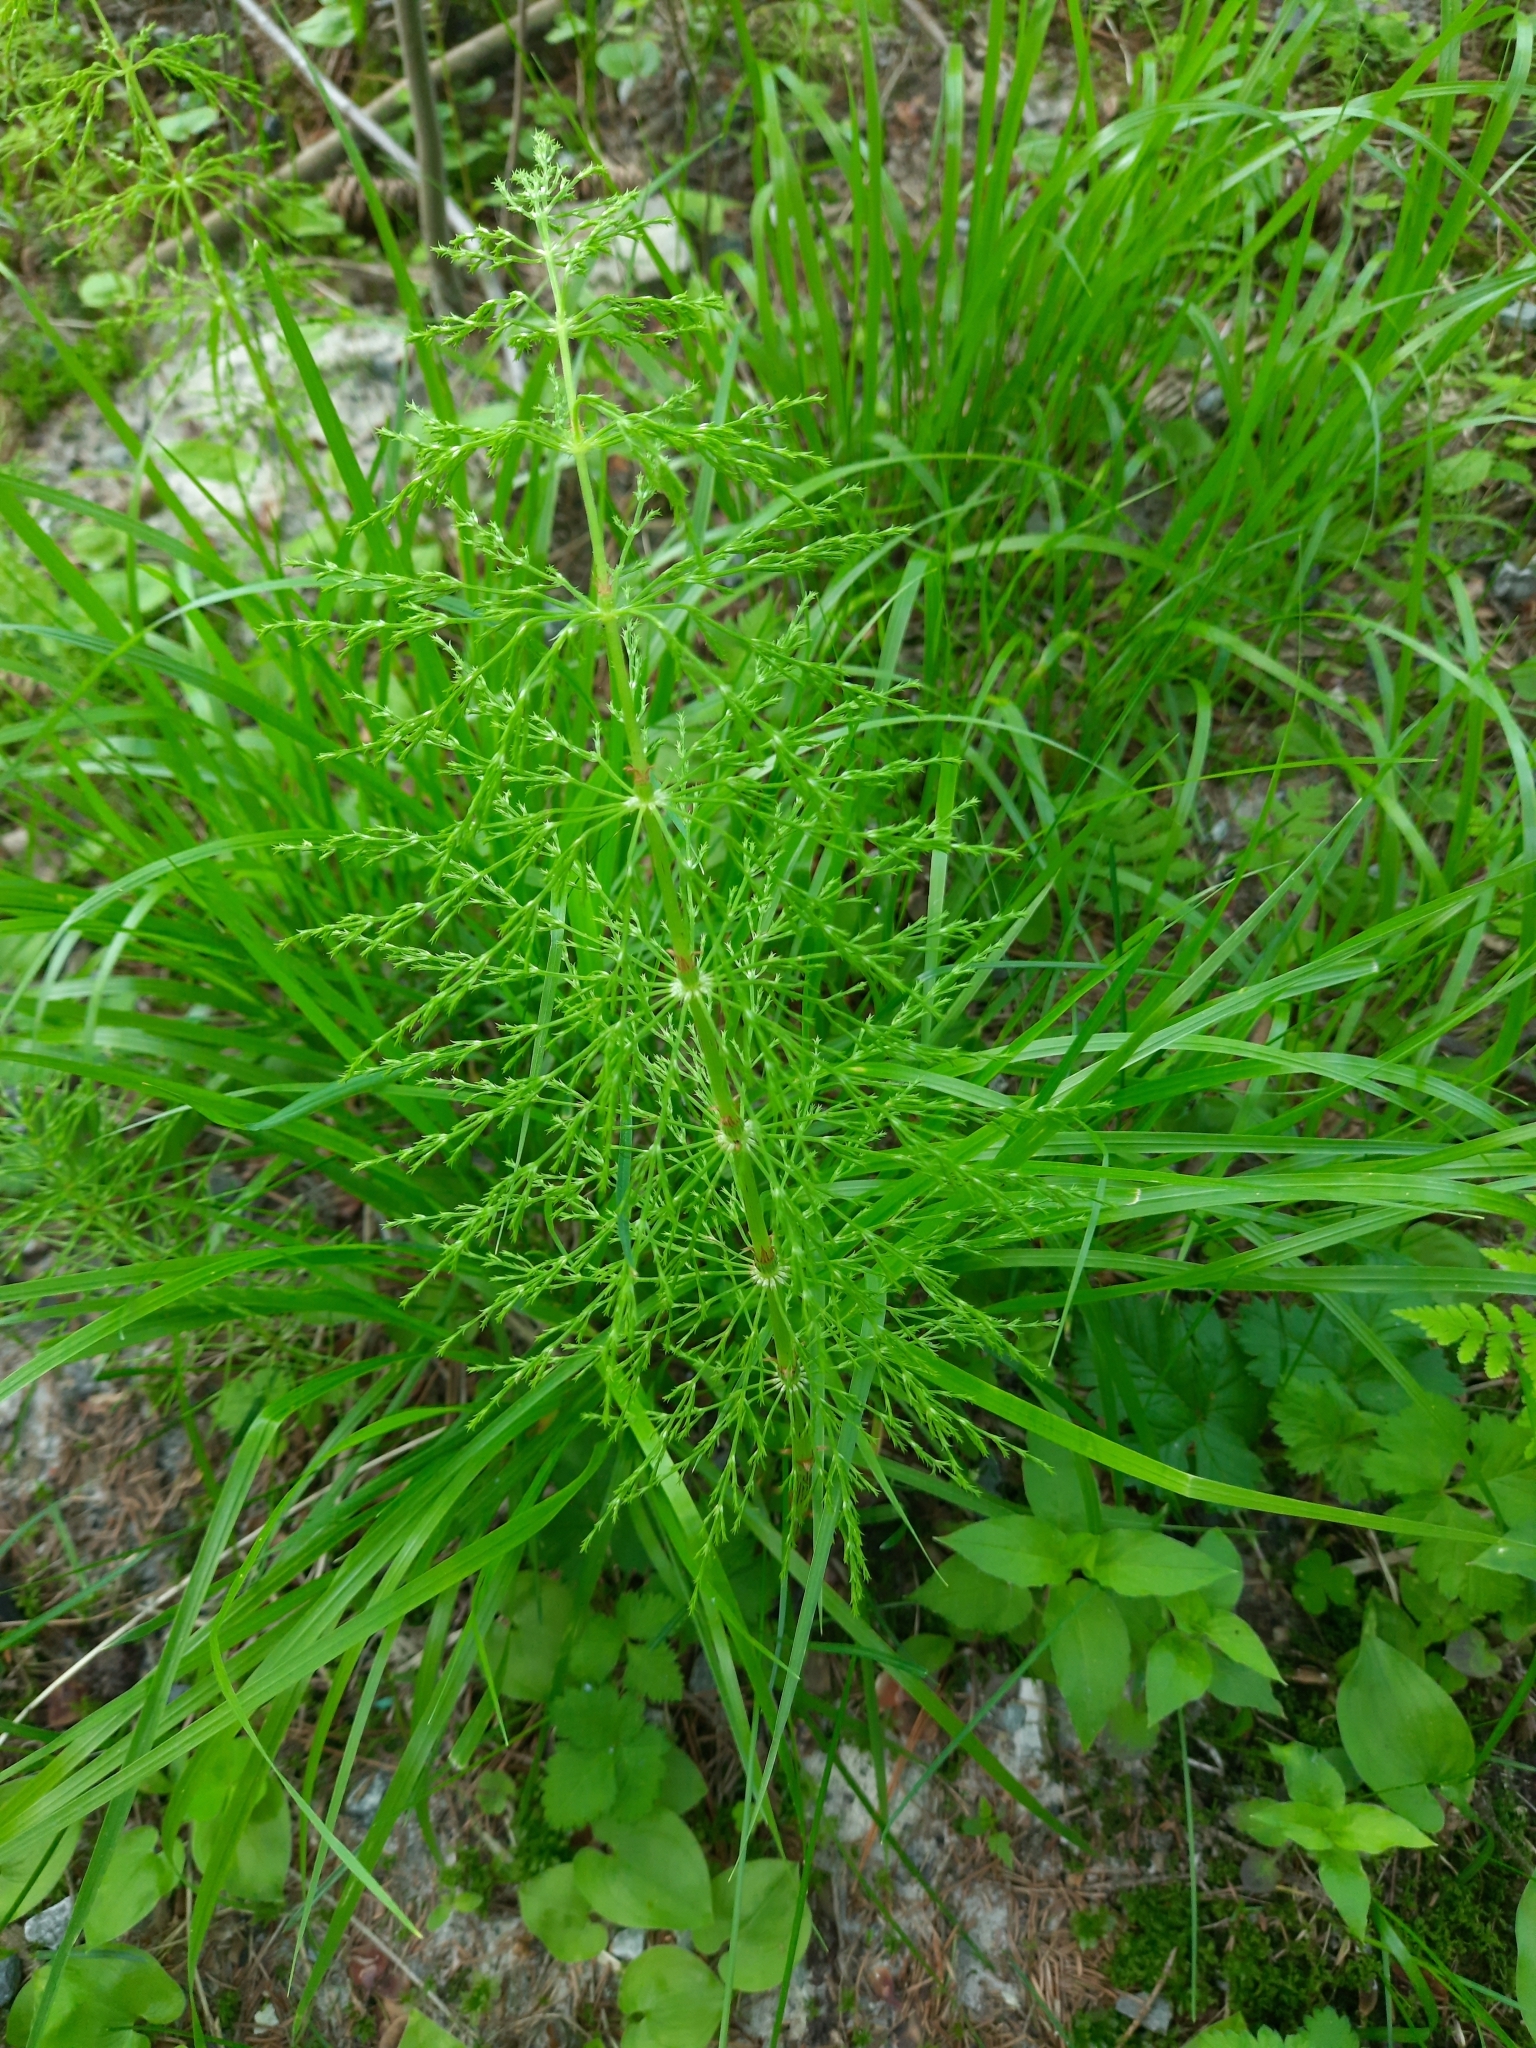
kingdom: Plantae
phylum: Tracheophyta
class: Polypodiopsida
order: Equisetales
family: Equisetaceae
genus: Equisetum
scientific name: Equisetum sylvaticum
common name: Wood horsetail
